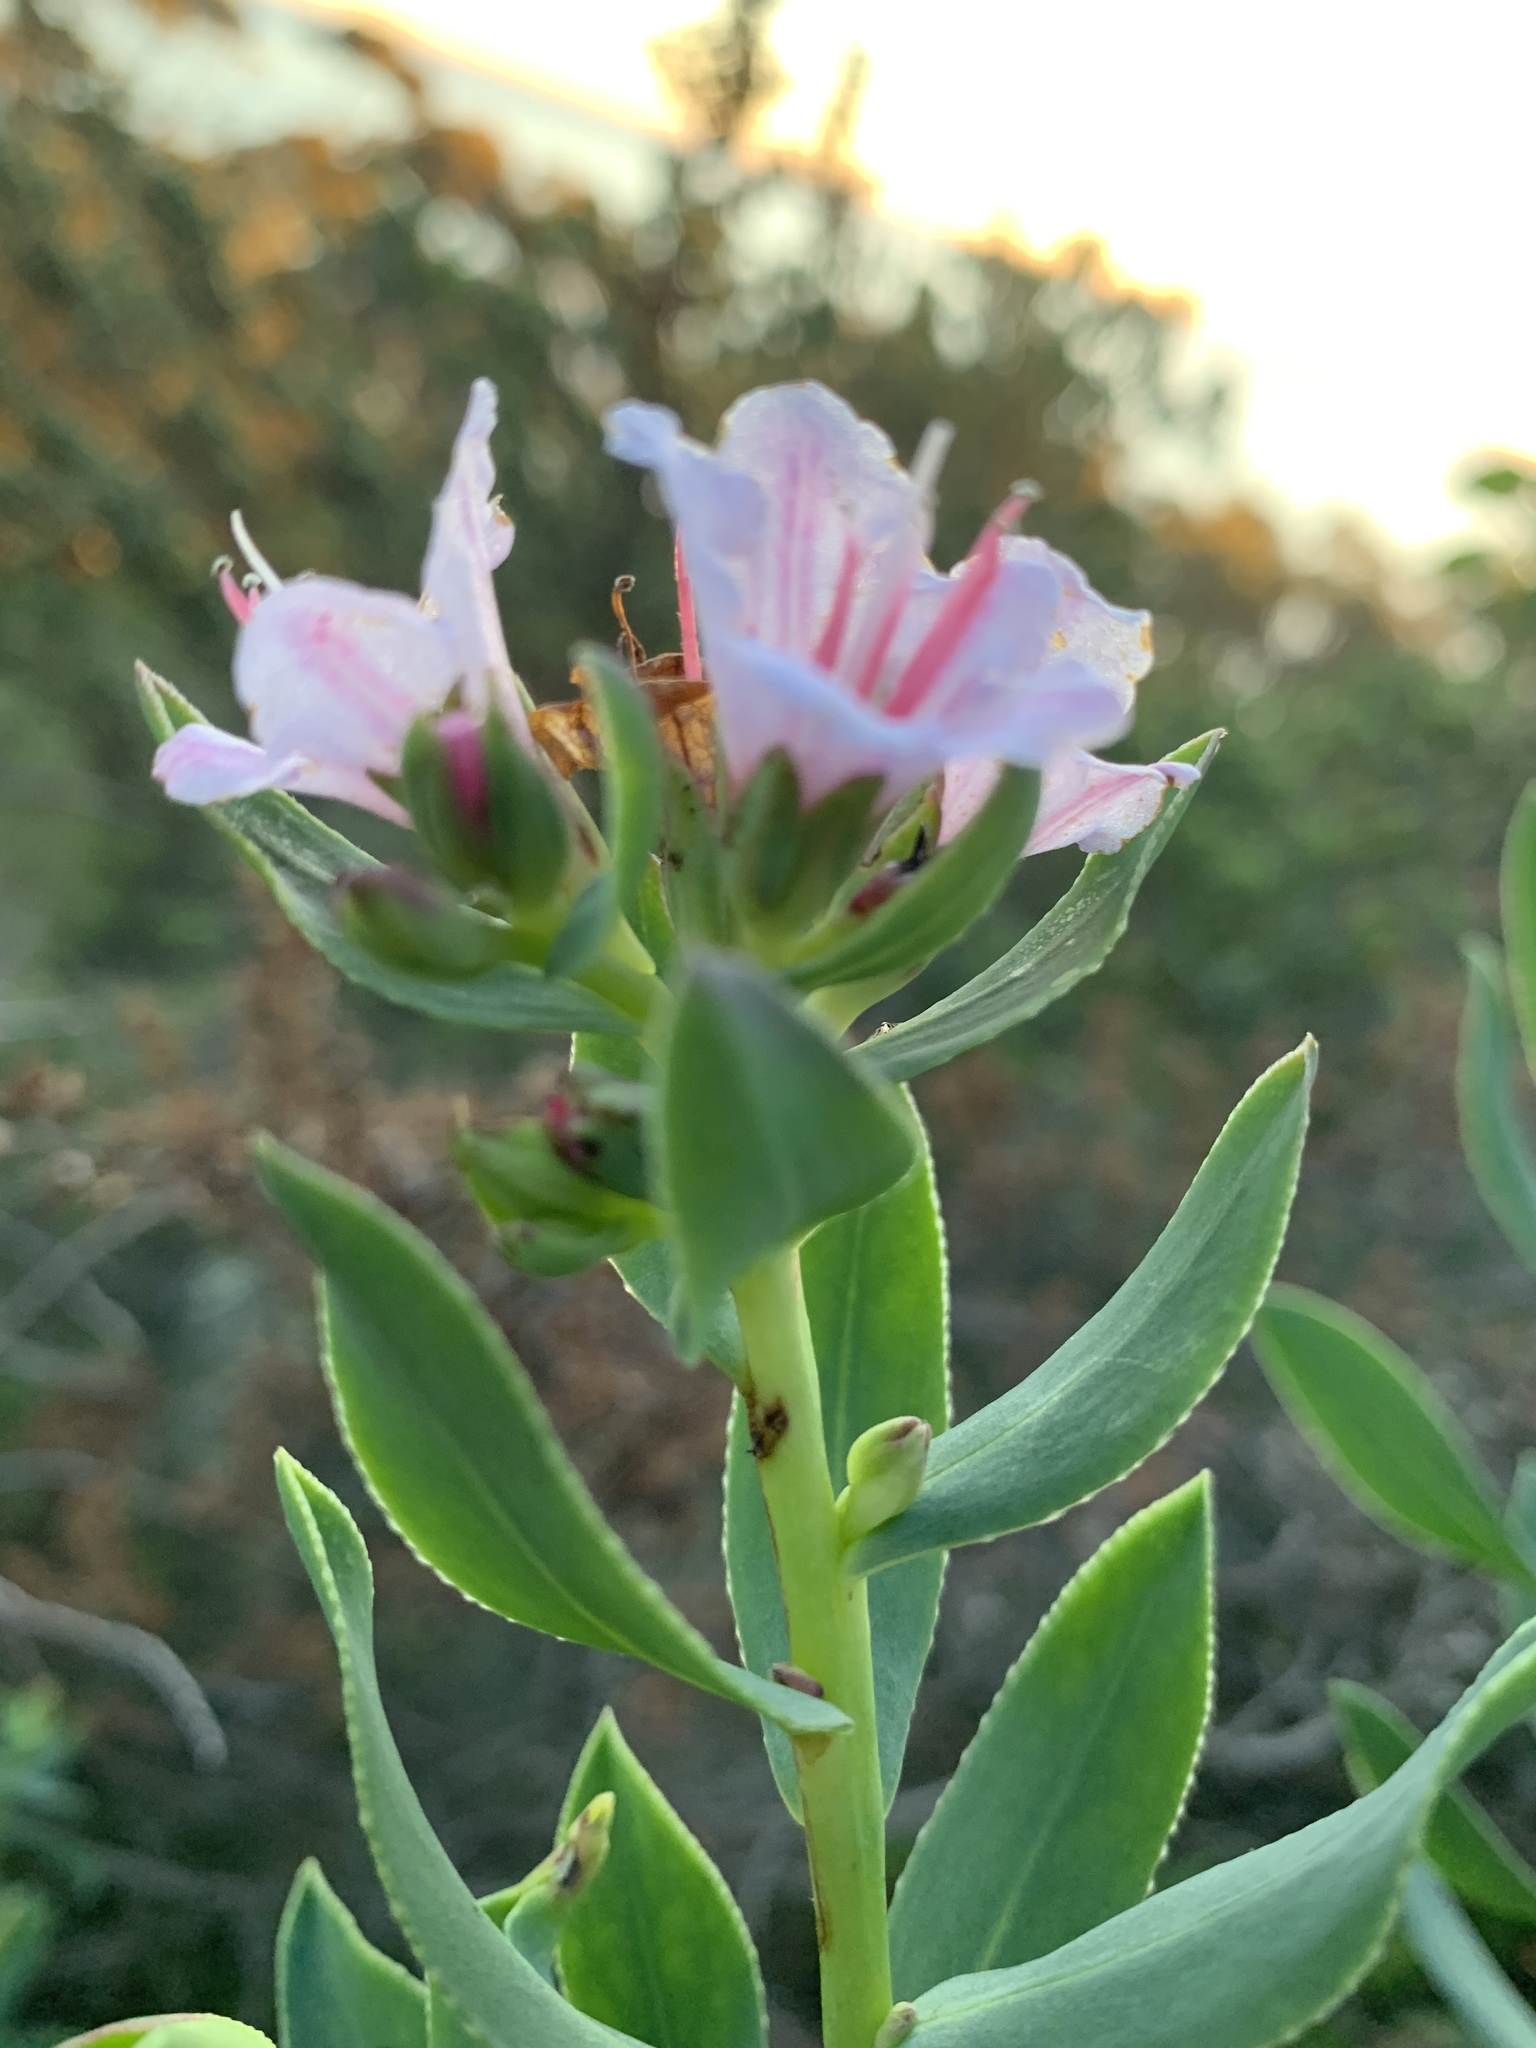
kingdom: Plantae
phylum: Tracheophyta
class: Magnoliopsida
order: Boraginales
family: Boraginaceae
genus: Lobostemon
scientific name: Lobostemon glaucophyllus
